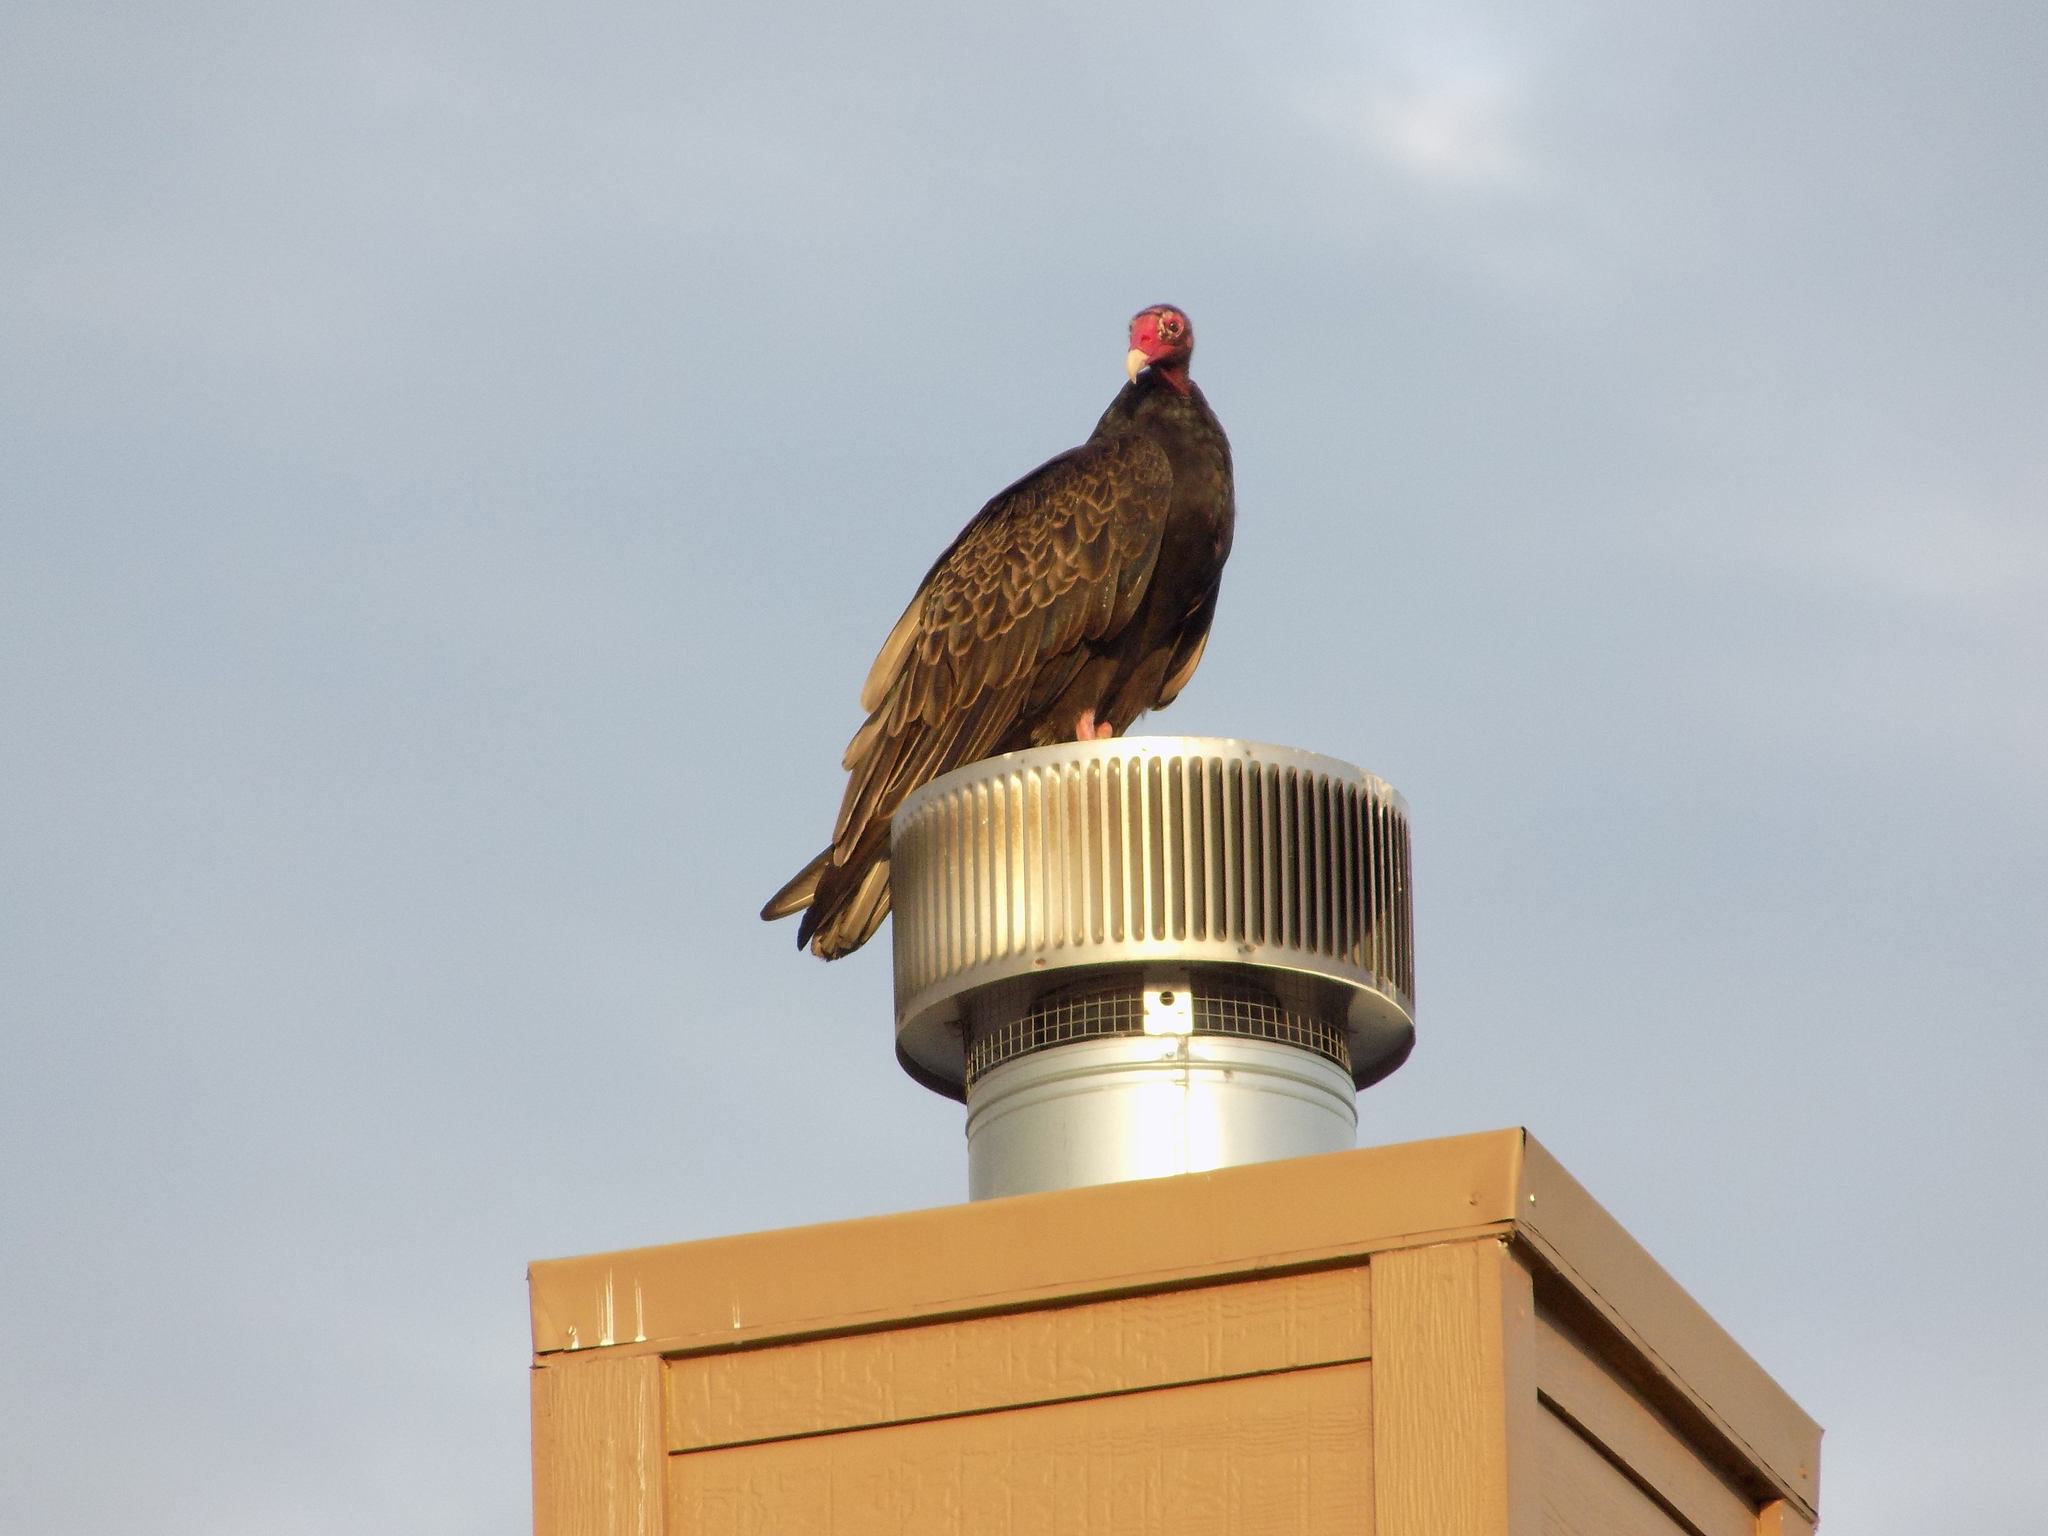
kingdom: Animalia
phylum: Chordata
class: Aves
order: Accipitriformes
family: Cathartidae
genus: Cathartes
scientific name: Cathartes aura
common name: Turkey vulture
